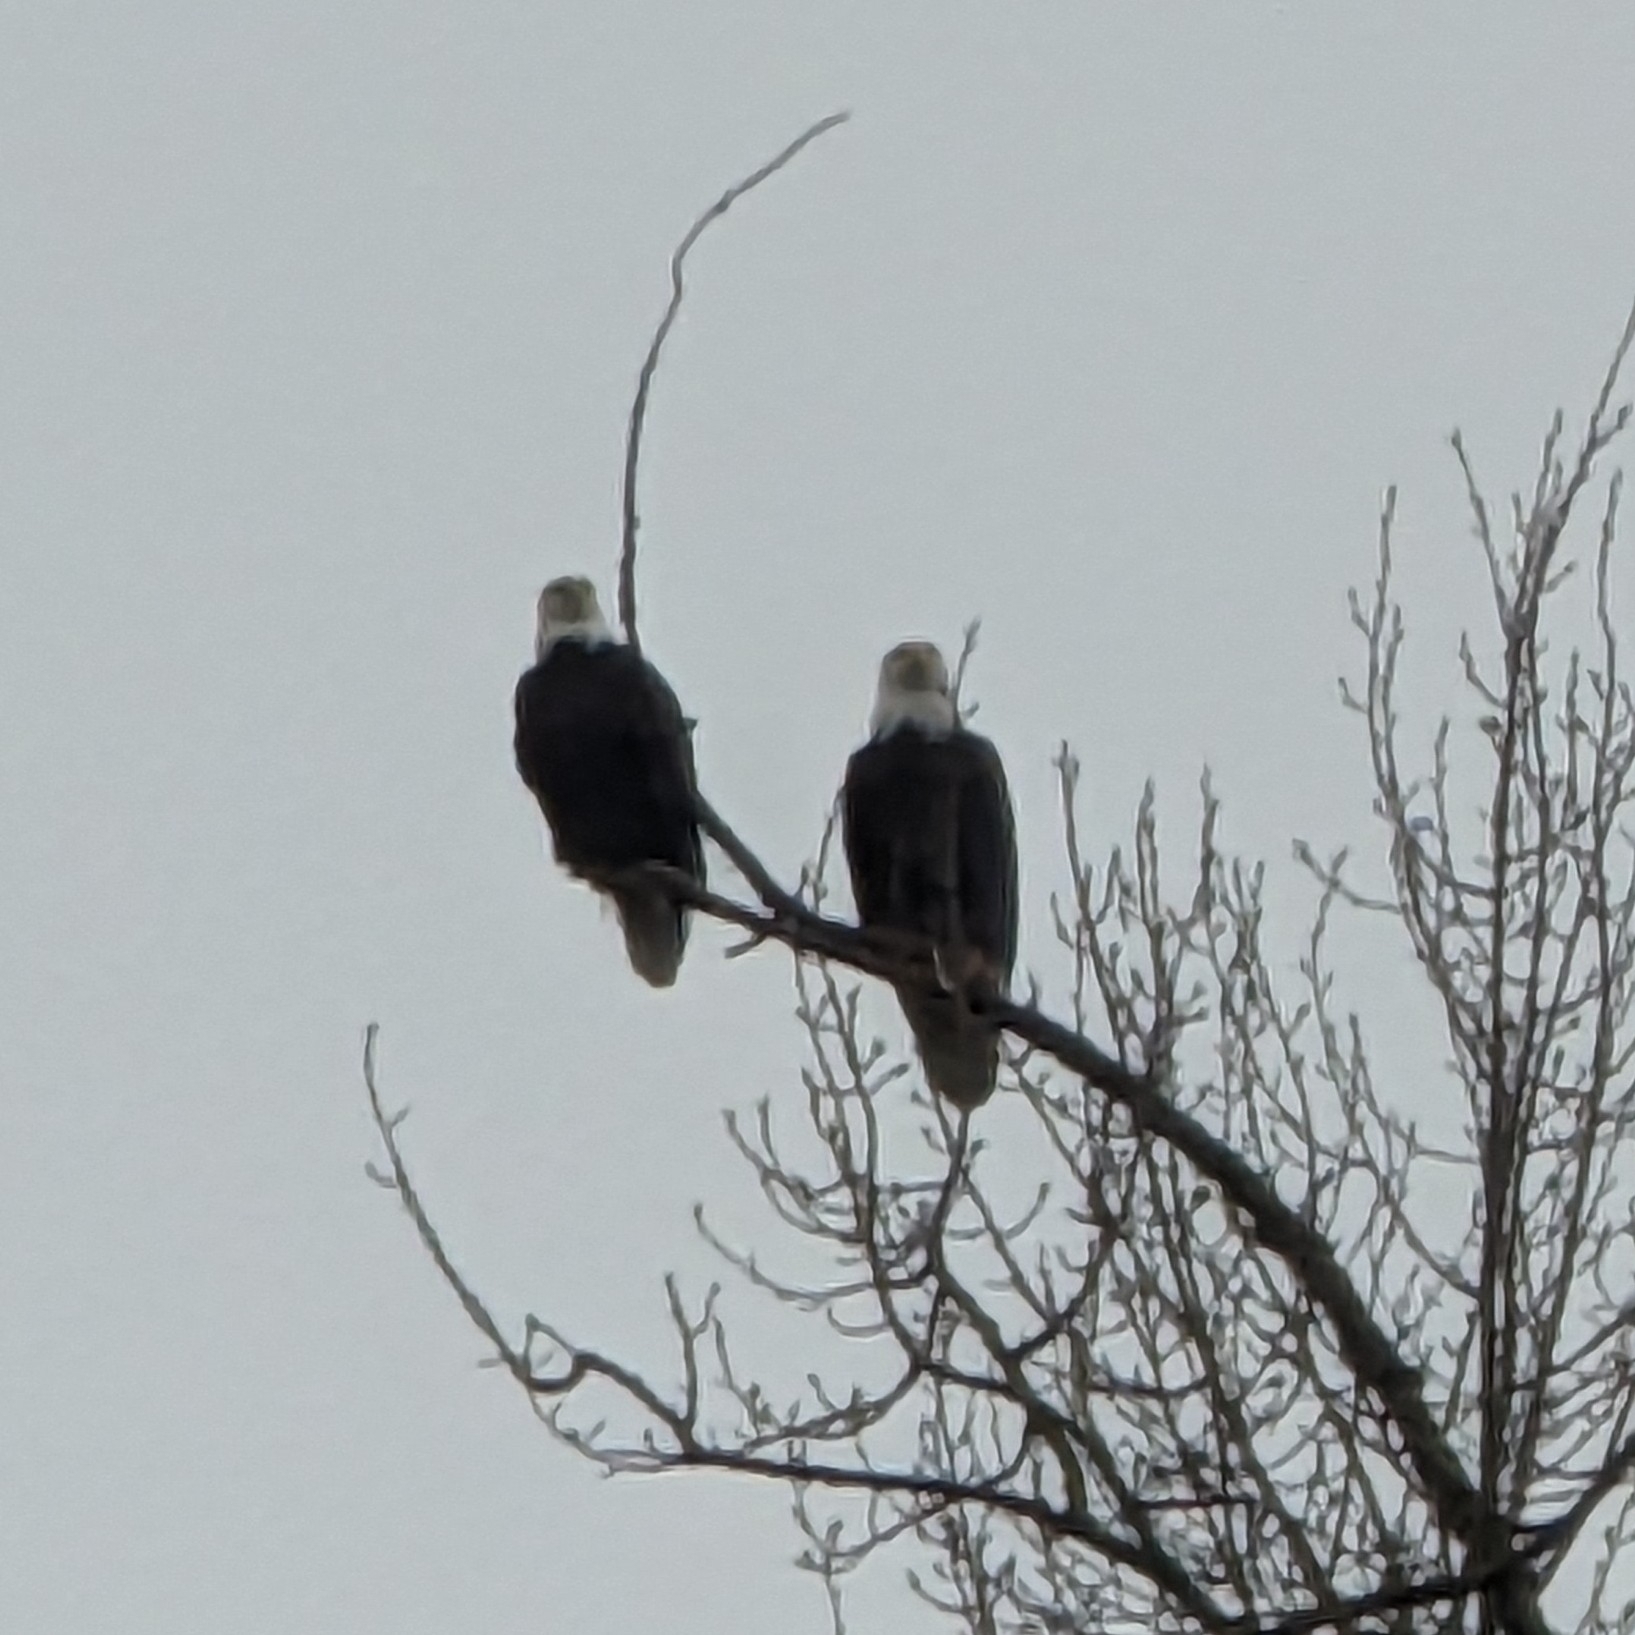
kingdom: Animalia
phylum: Chordata
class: Aves
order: Accipitriformes
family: Accipitridae
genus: Haliaeetus
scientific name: Haliaeetus leucocephalus
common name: Bald eagle
